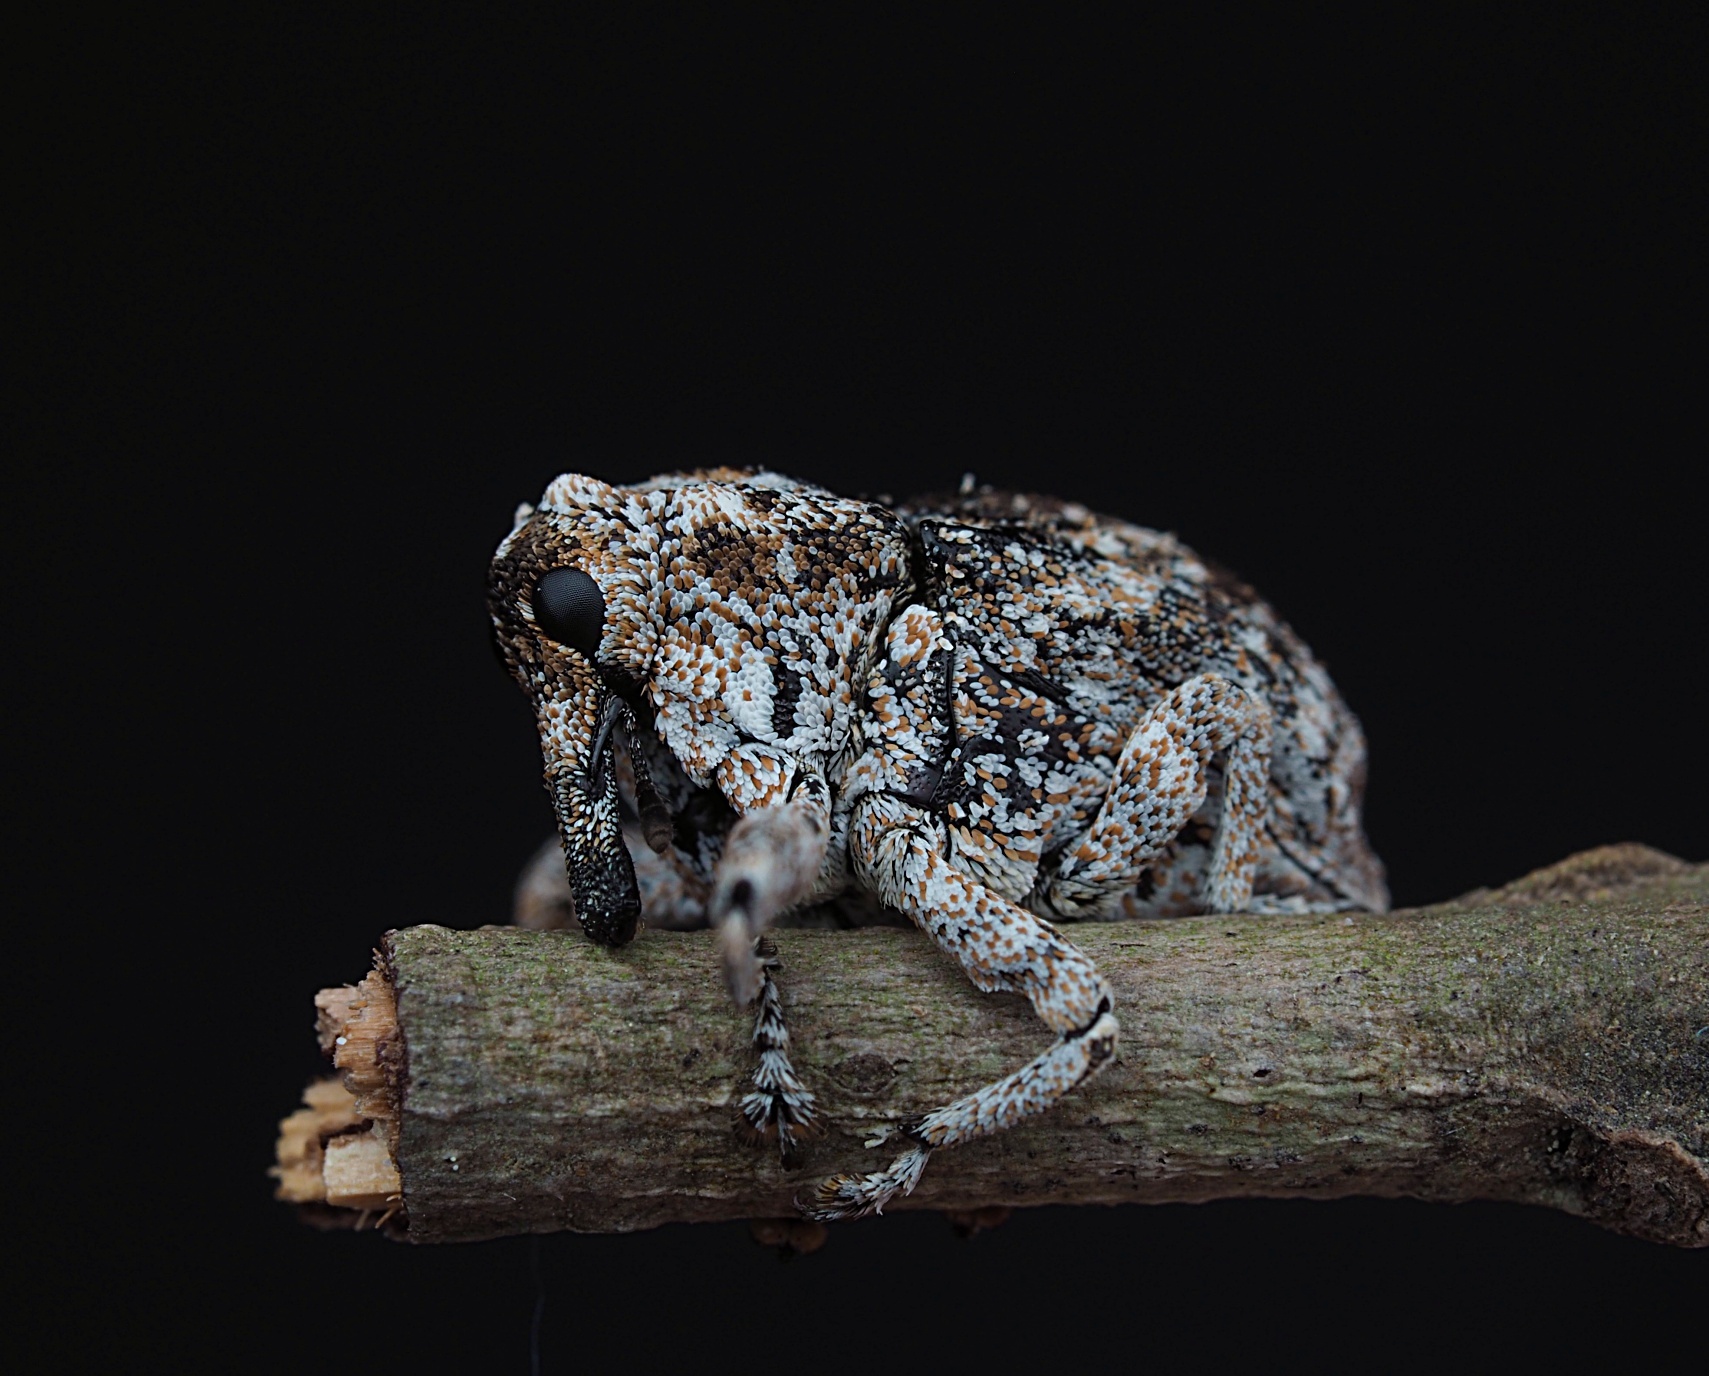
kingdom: Animalia
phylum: Arthropoda
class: Insecta
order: Coleoptera
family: Curculionidae
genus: Euthyrhinus
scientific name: Euthyrhinus squamiger
